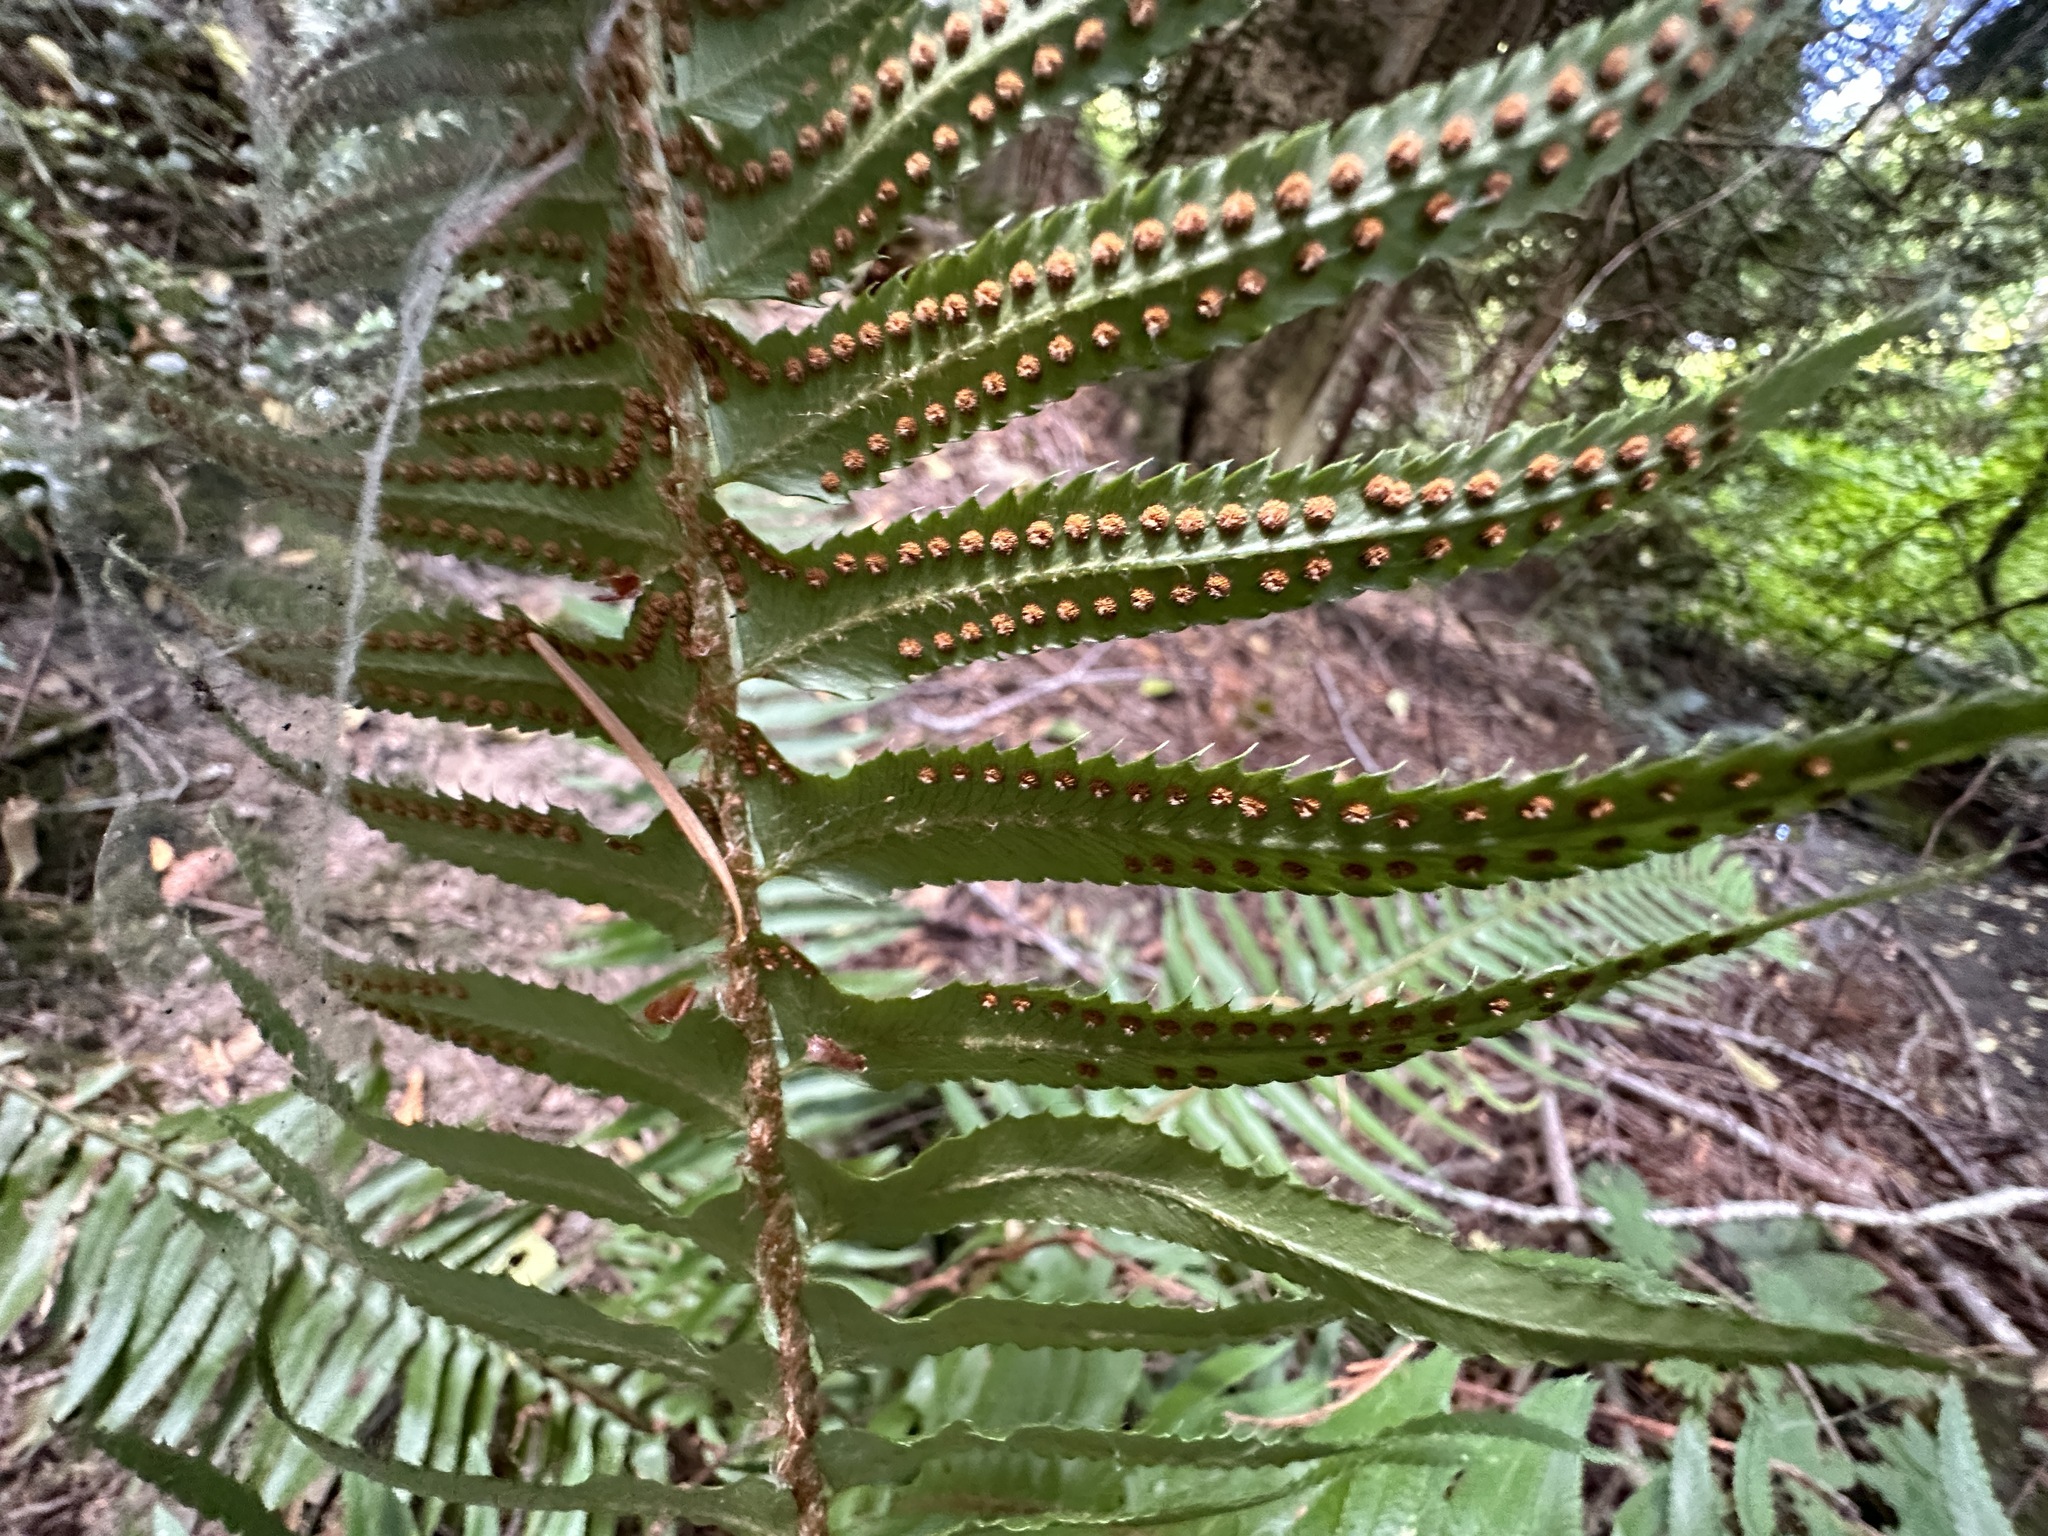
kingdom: Plantae
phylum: Tracheophyta
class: Polypodiopsida
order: Polypodiales
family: Dryopteridaceae
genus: Polystichum
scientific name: Polystichum munitum
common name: Western sword-fern
